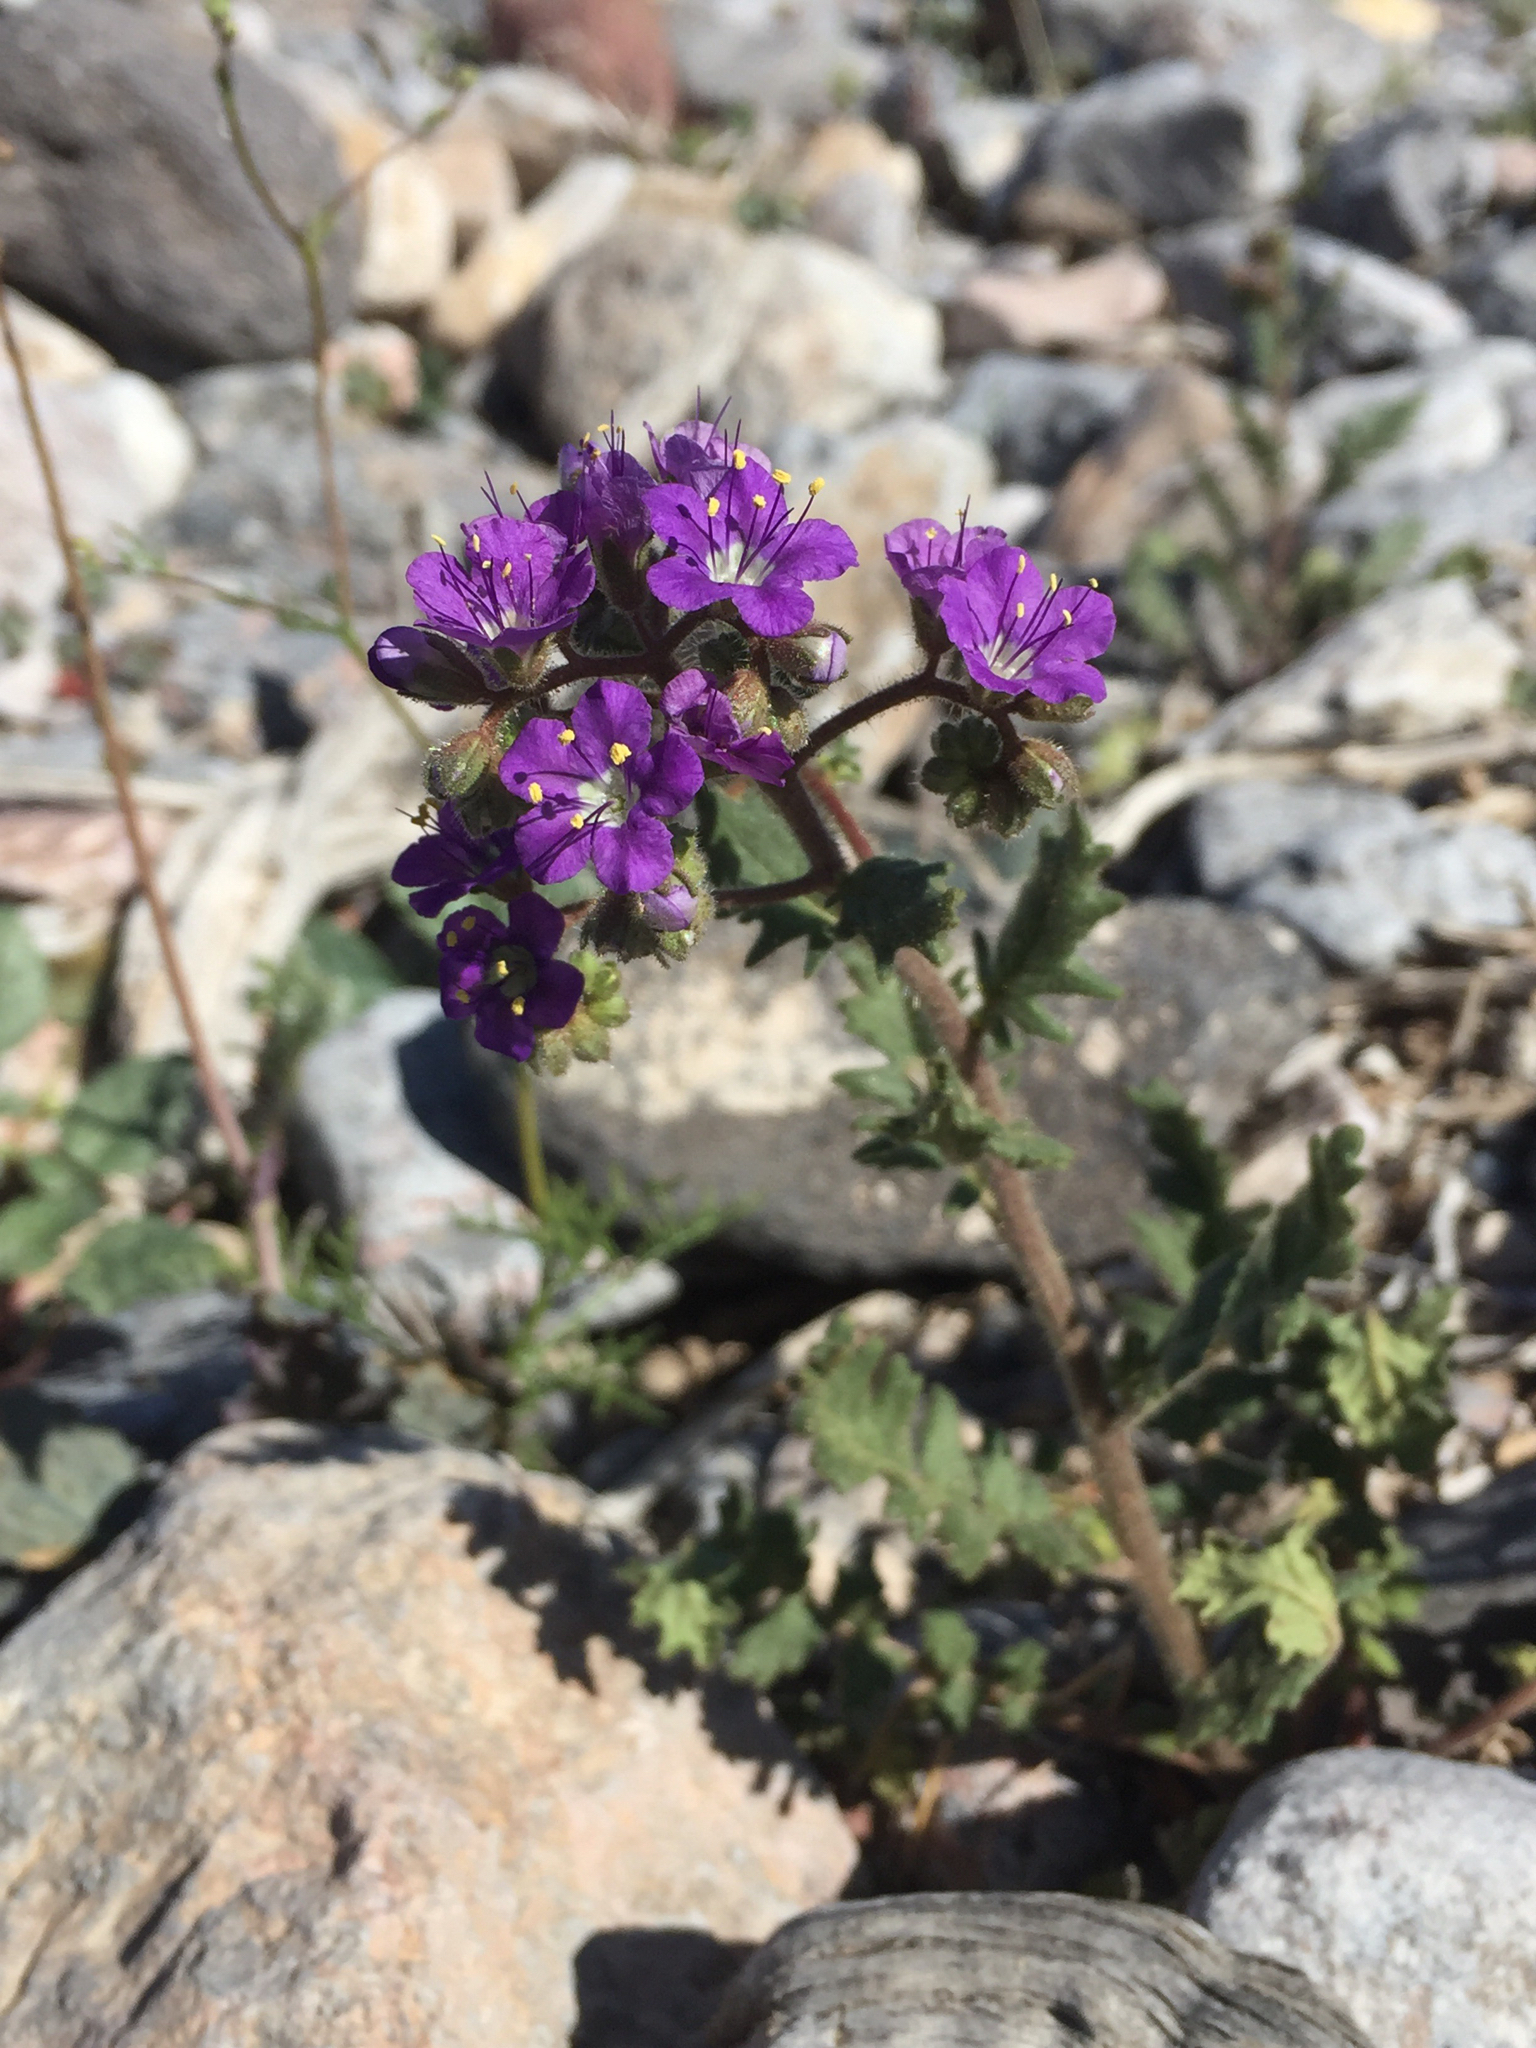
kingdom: Plantae
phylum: Tracheophyta
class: Magnoliopsida
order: Boraginales
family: Hydrophyllaceae
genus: Phacelia
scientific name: Phacelia crenulata
